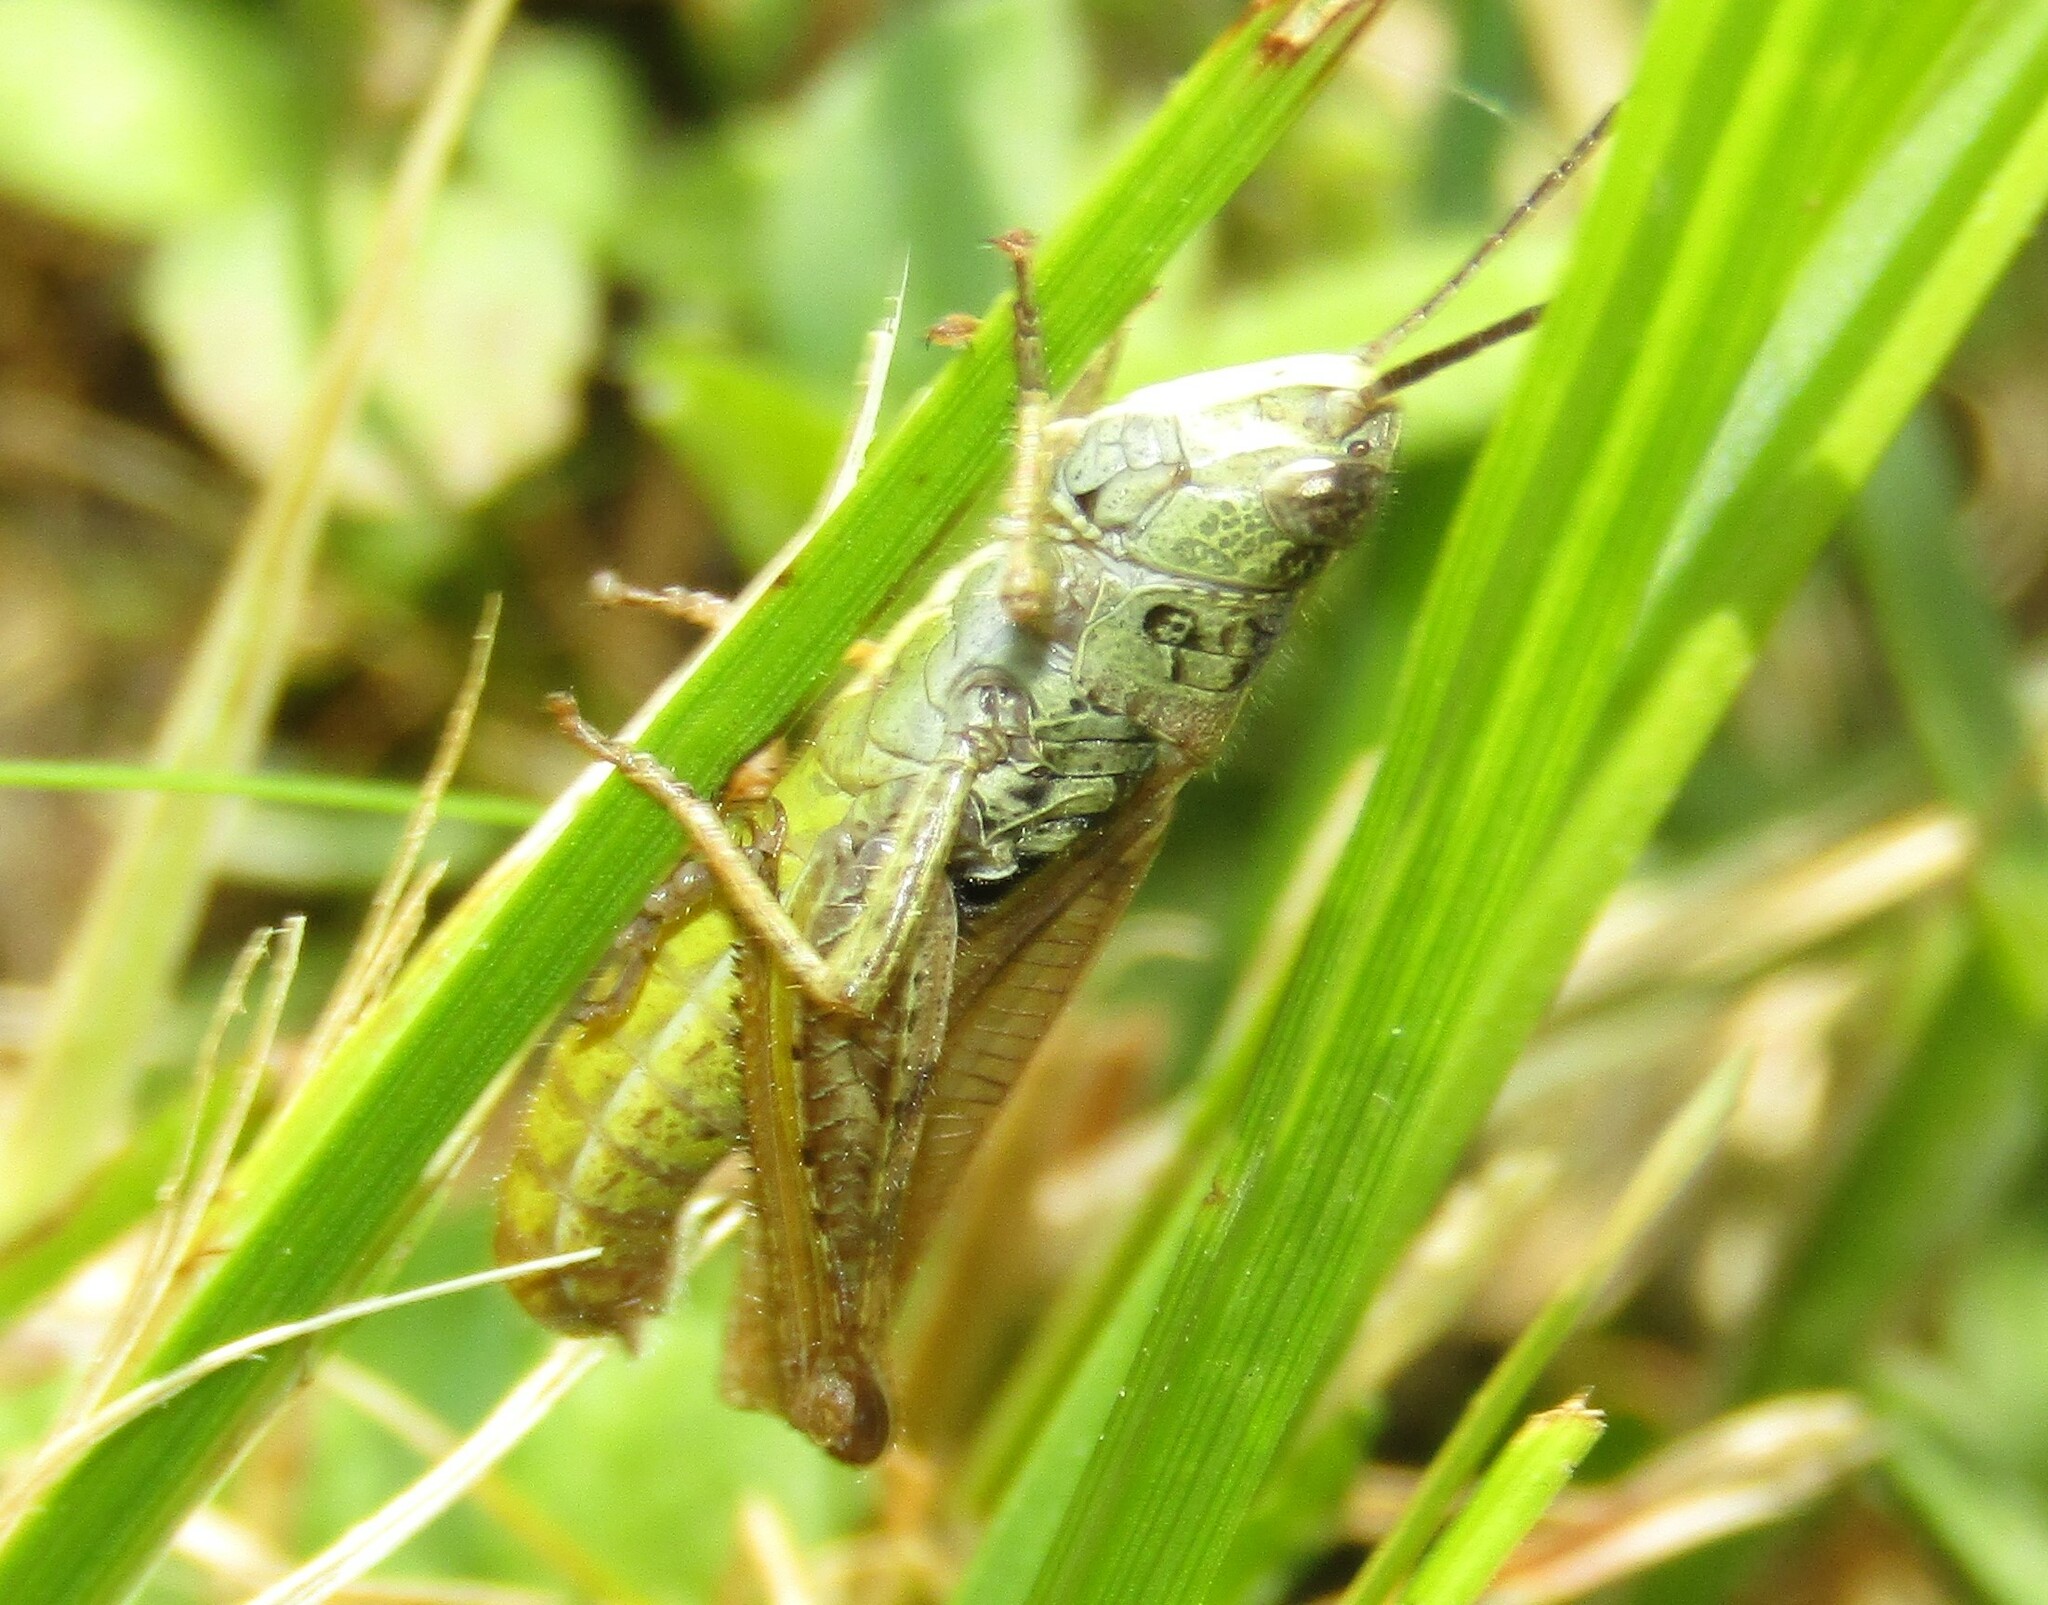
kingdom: Animalia
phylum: Arthropoda
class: Insecta
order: Orthoptera
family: Acrididae
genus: Chorthippus
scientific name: Chorthippus apricarius
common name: Upland field grasshopper
